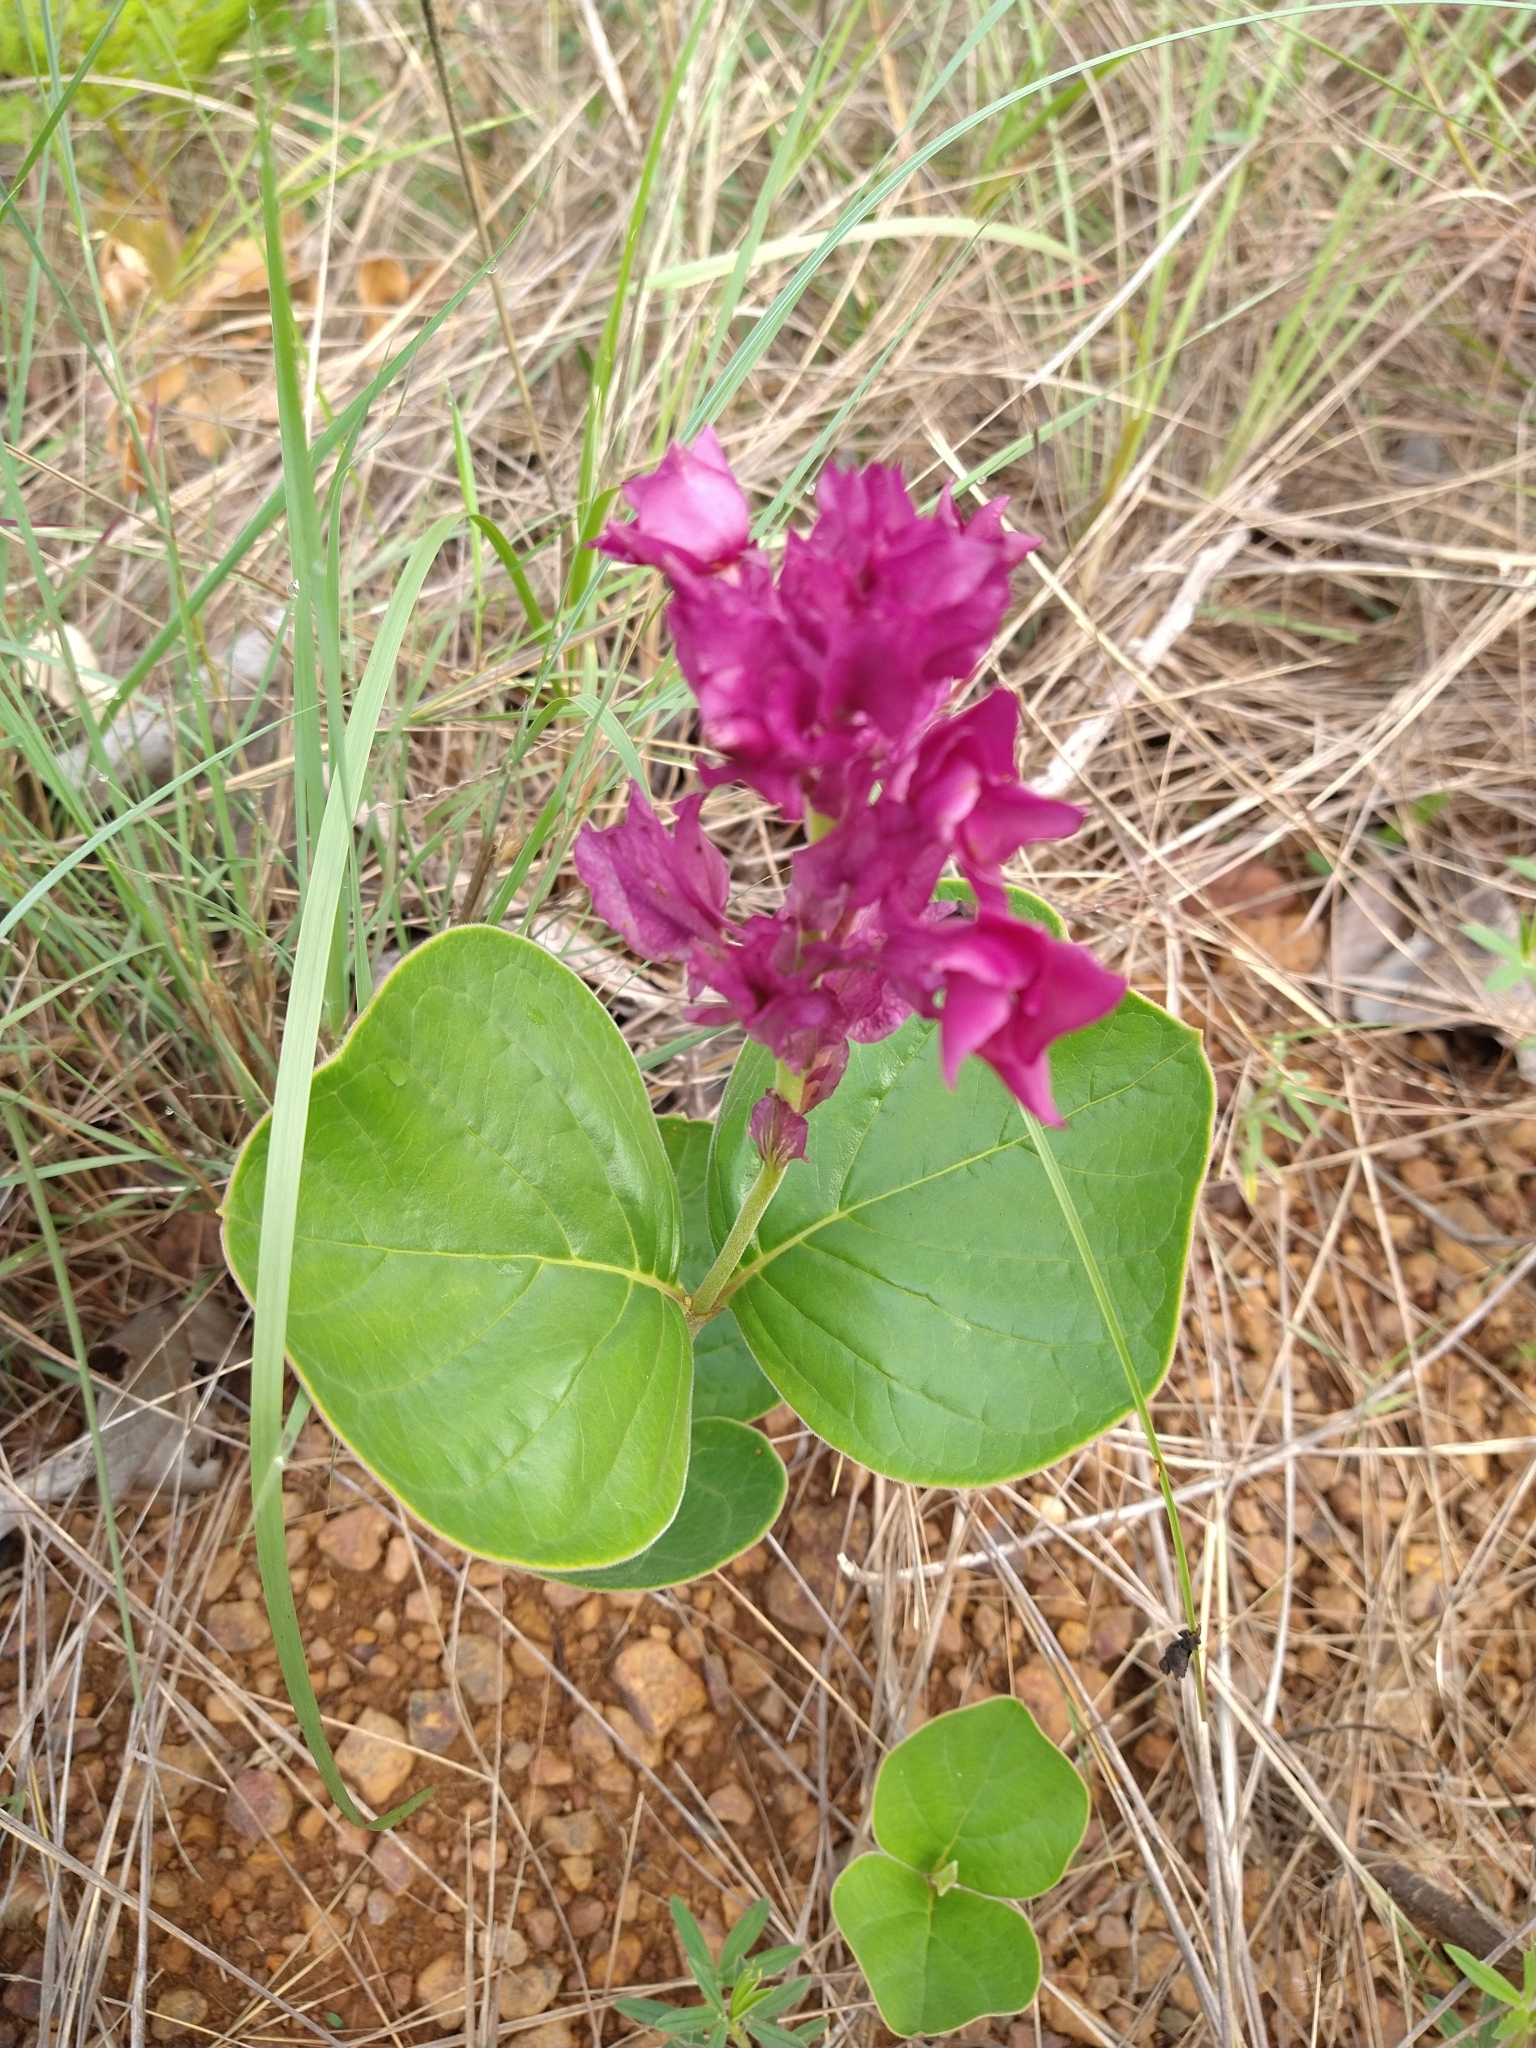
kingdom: Plantae
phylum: Tracheophyta
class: Magnoliopsida
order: Gentianales
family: Apocynaceae
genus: Prestonia
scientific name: Prestonia erecta
